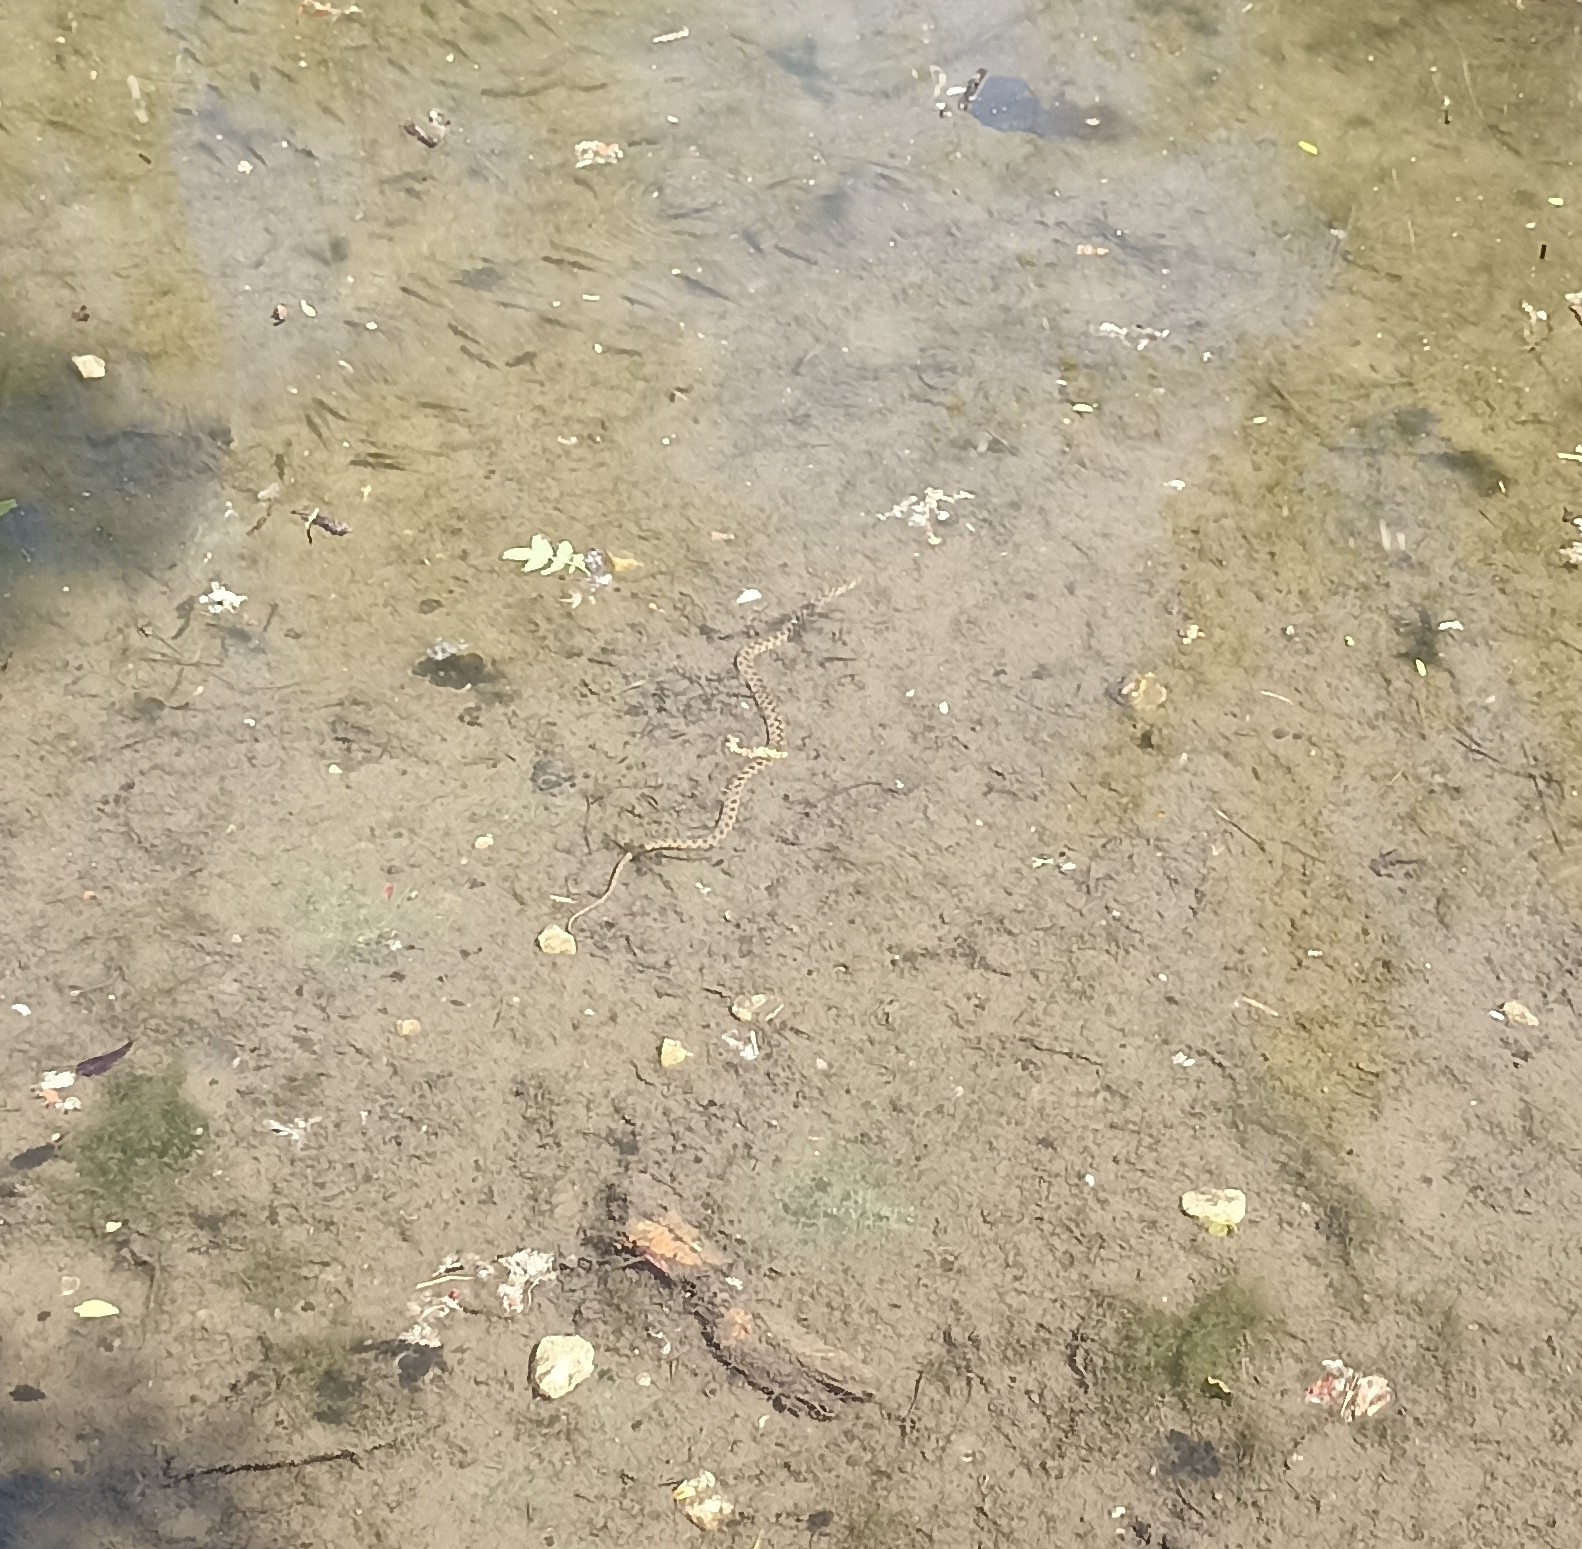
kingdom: Animalia
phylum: Chordata
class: Squamata
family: Colubridae
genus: Natrix
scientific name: Natrix maura
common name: Viperine water snake
